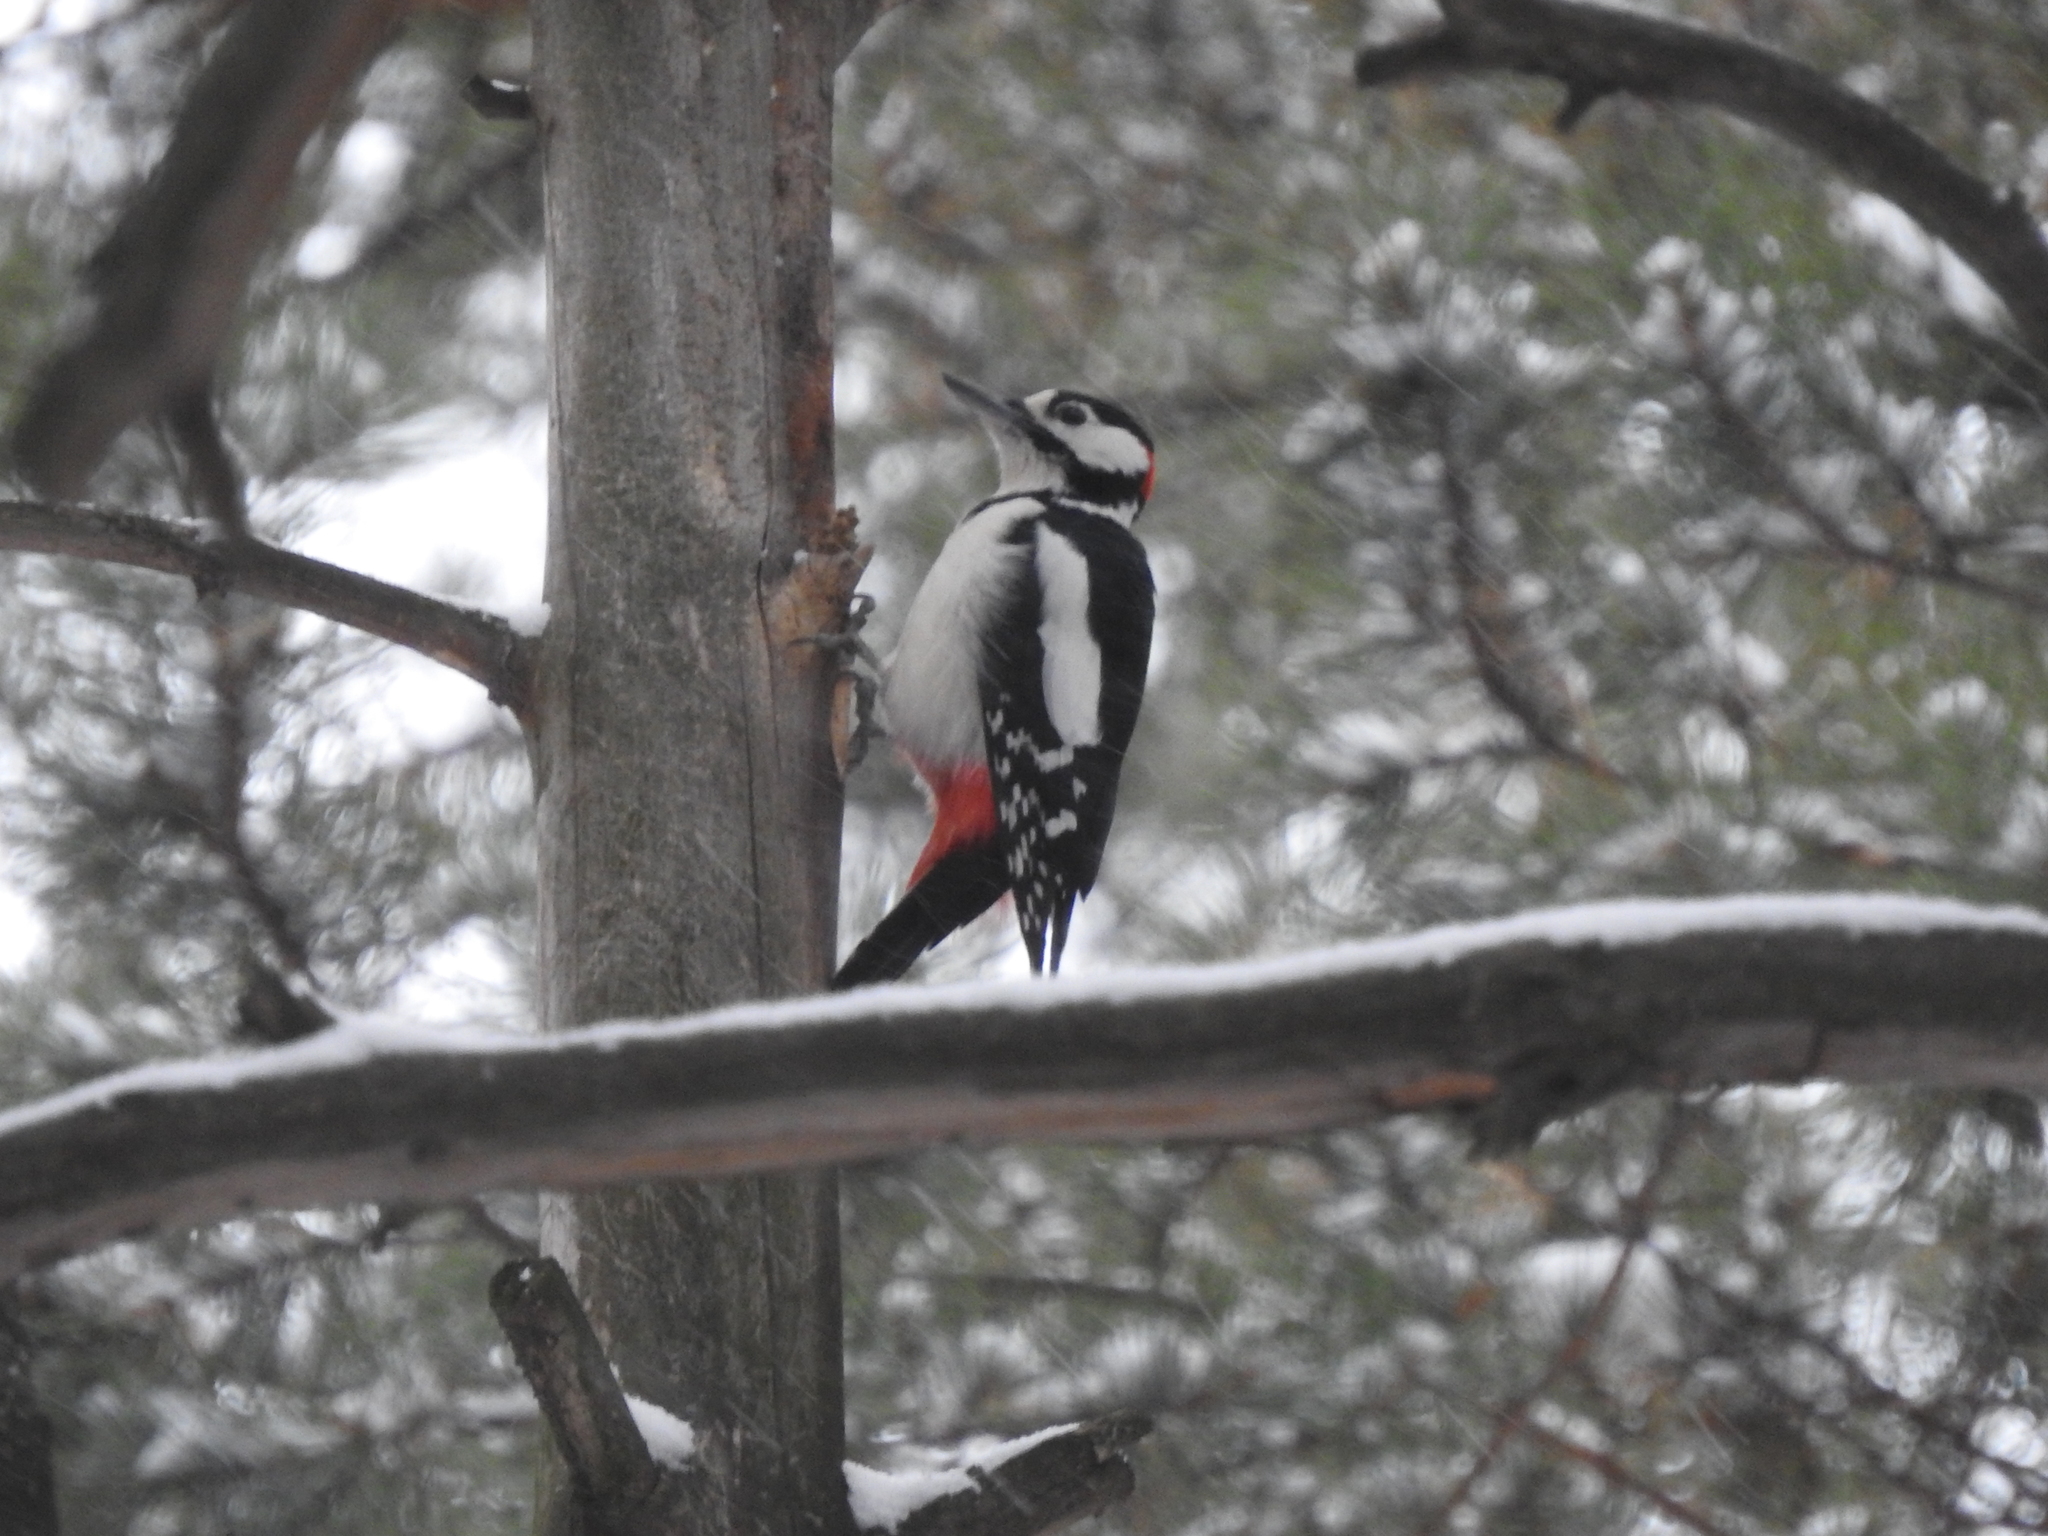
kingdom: Animalia
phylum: Chordata
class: Aves
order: Piciformes
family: Picidae
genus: Dendrocopos
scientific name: Dendrocopos major
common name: Great spotted woodpecker
